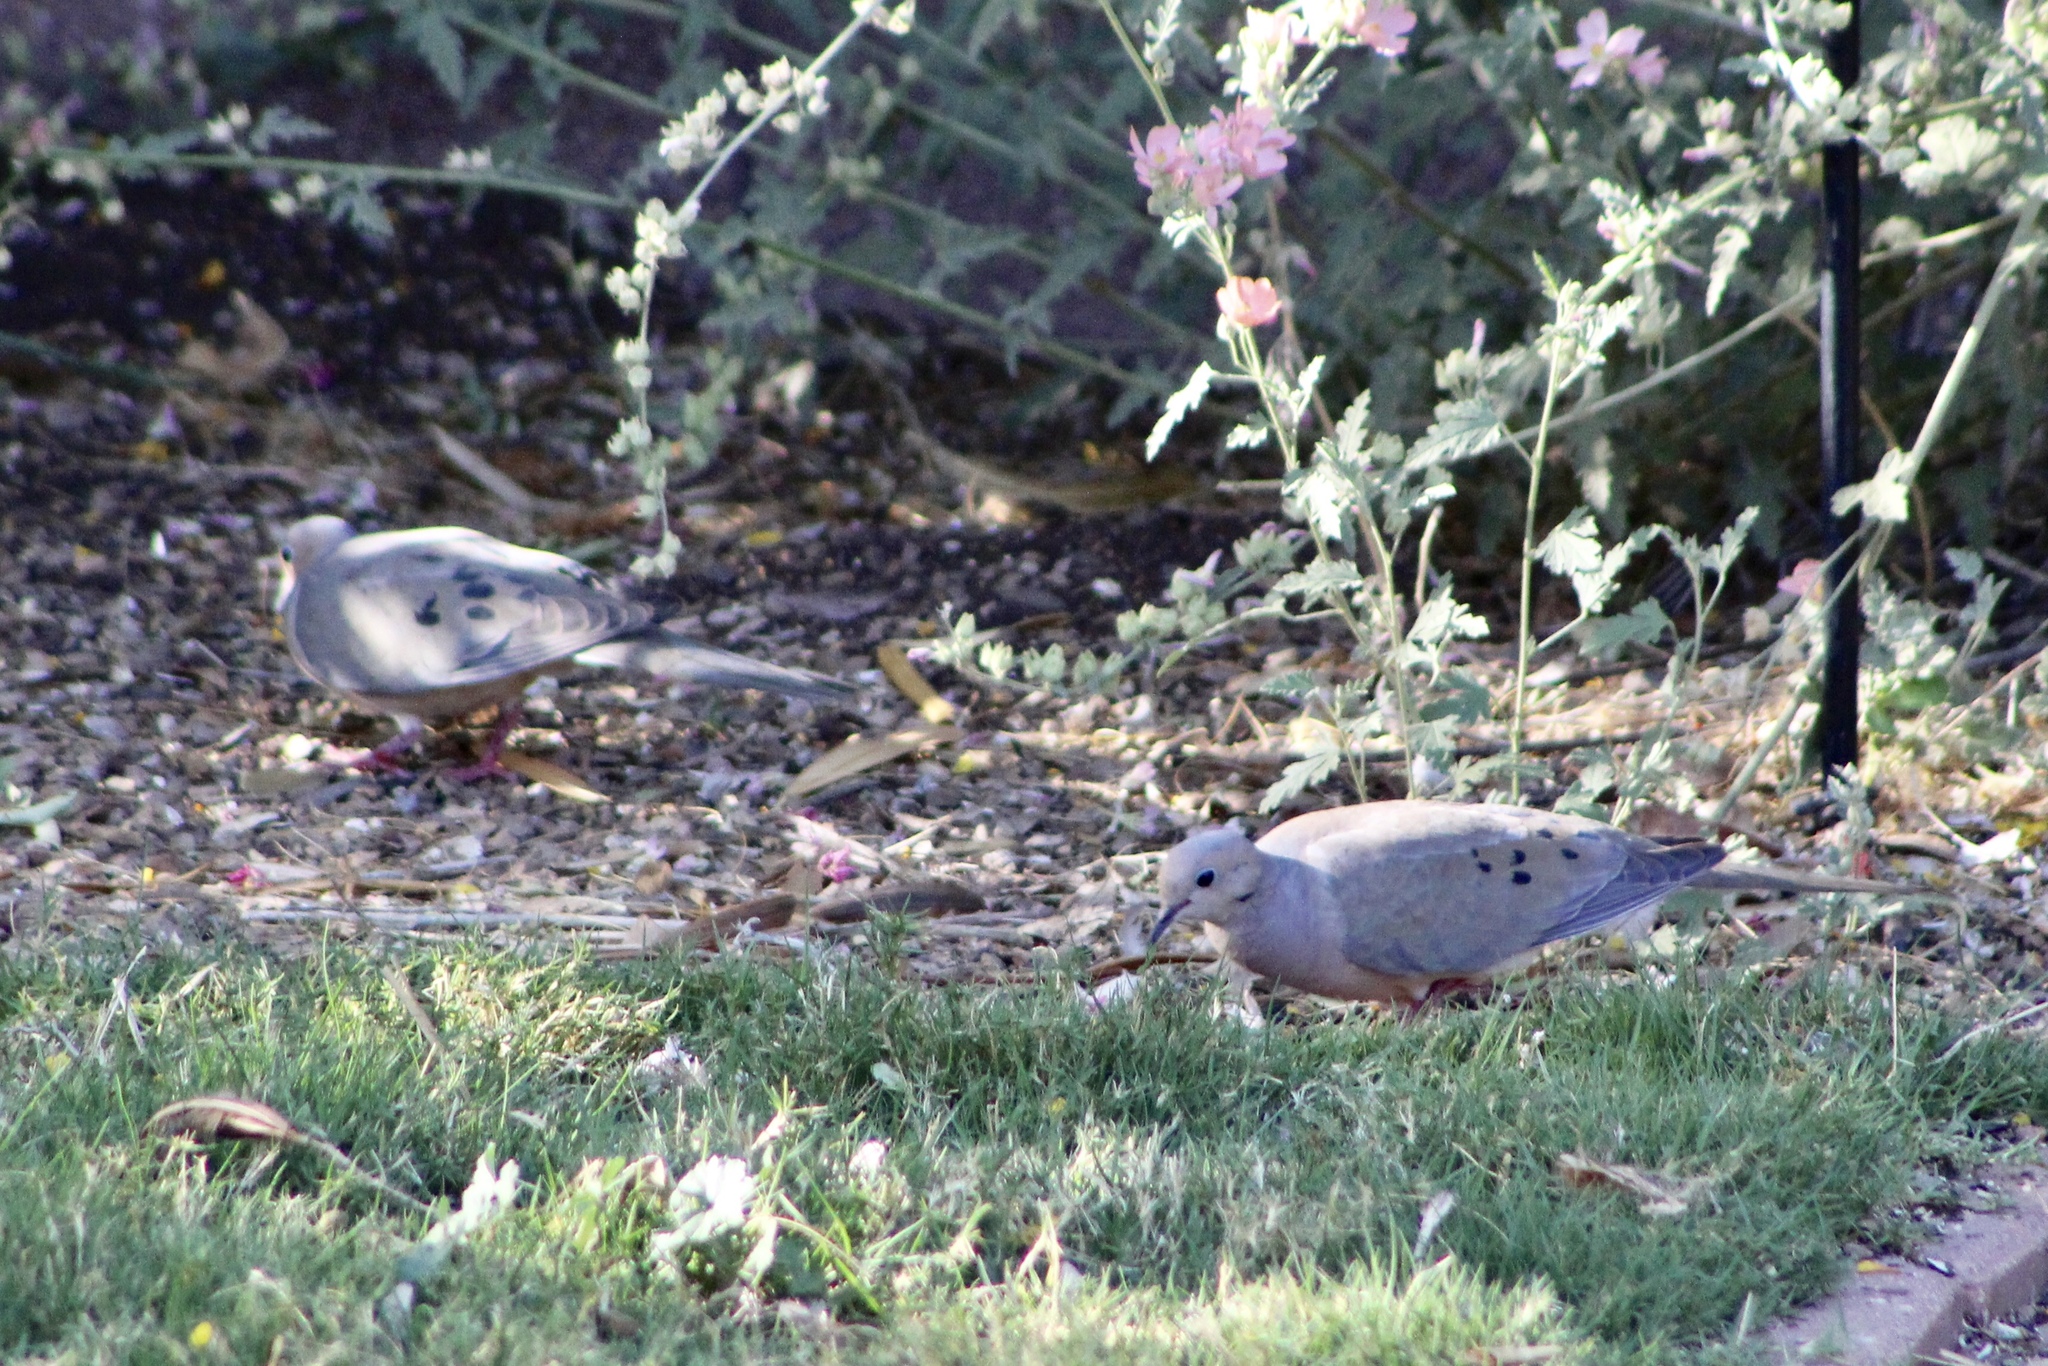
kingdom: Animalia
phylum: Chordata
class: Aves
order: Columbiformes
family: Columbidae
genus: Zenaida
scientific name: Zenaida macroura
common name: Mourning dove
